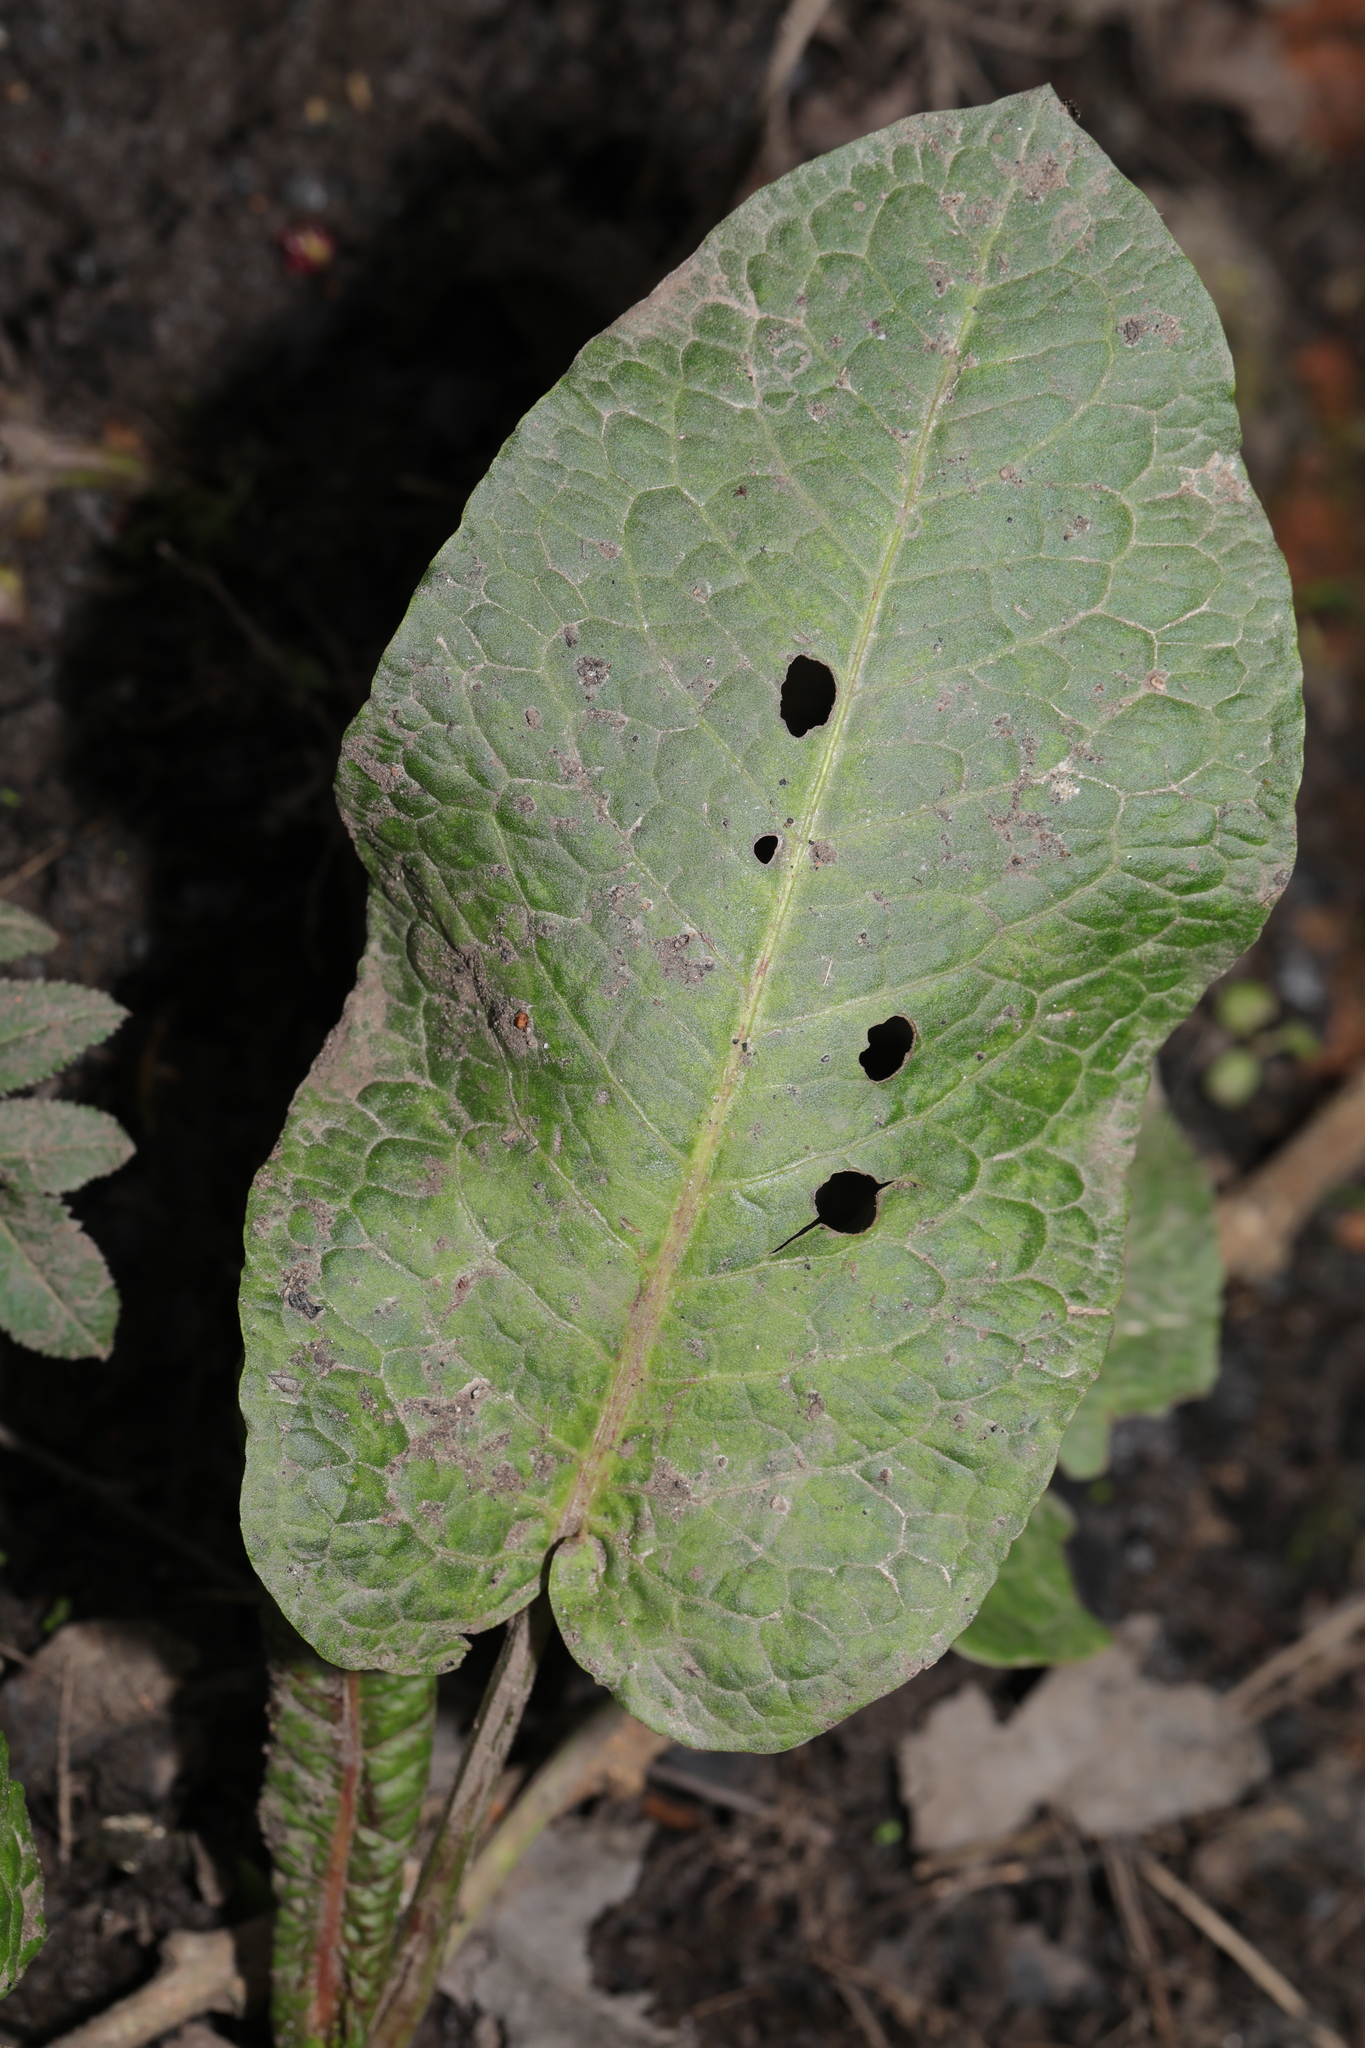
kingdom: Plantae
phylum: Tracheophyta
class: Magnoliopsida
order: Caryophyllales
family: Polygonaceae
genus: Rumex
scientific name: Rumex obtusifolius
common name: Bitter dock
